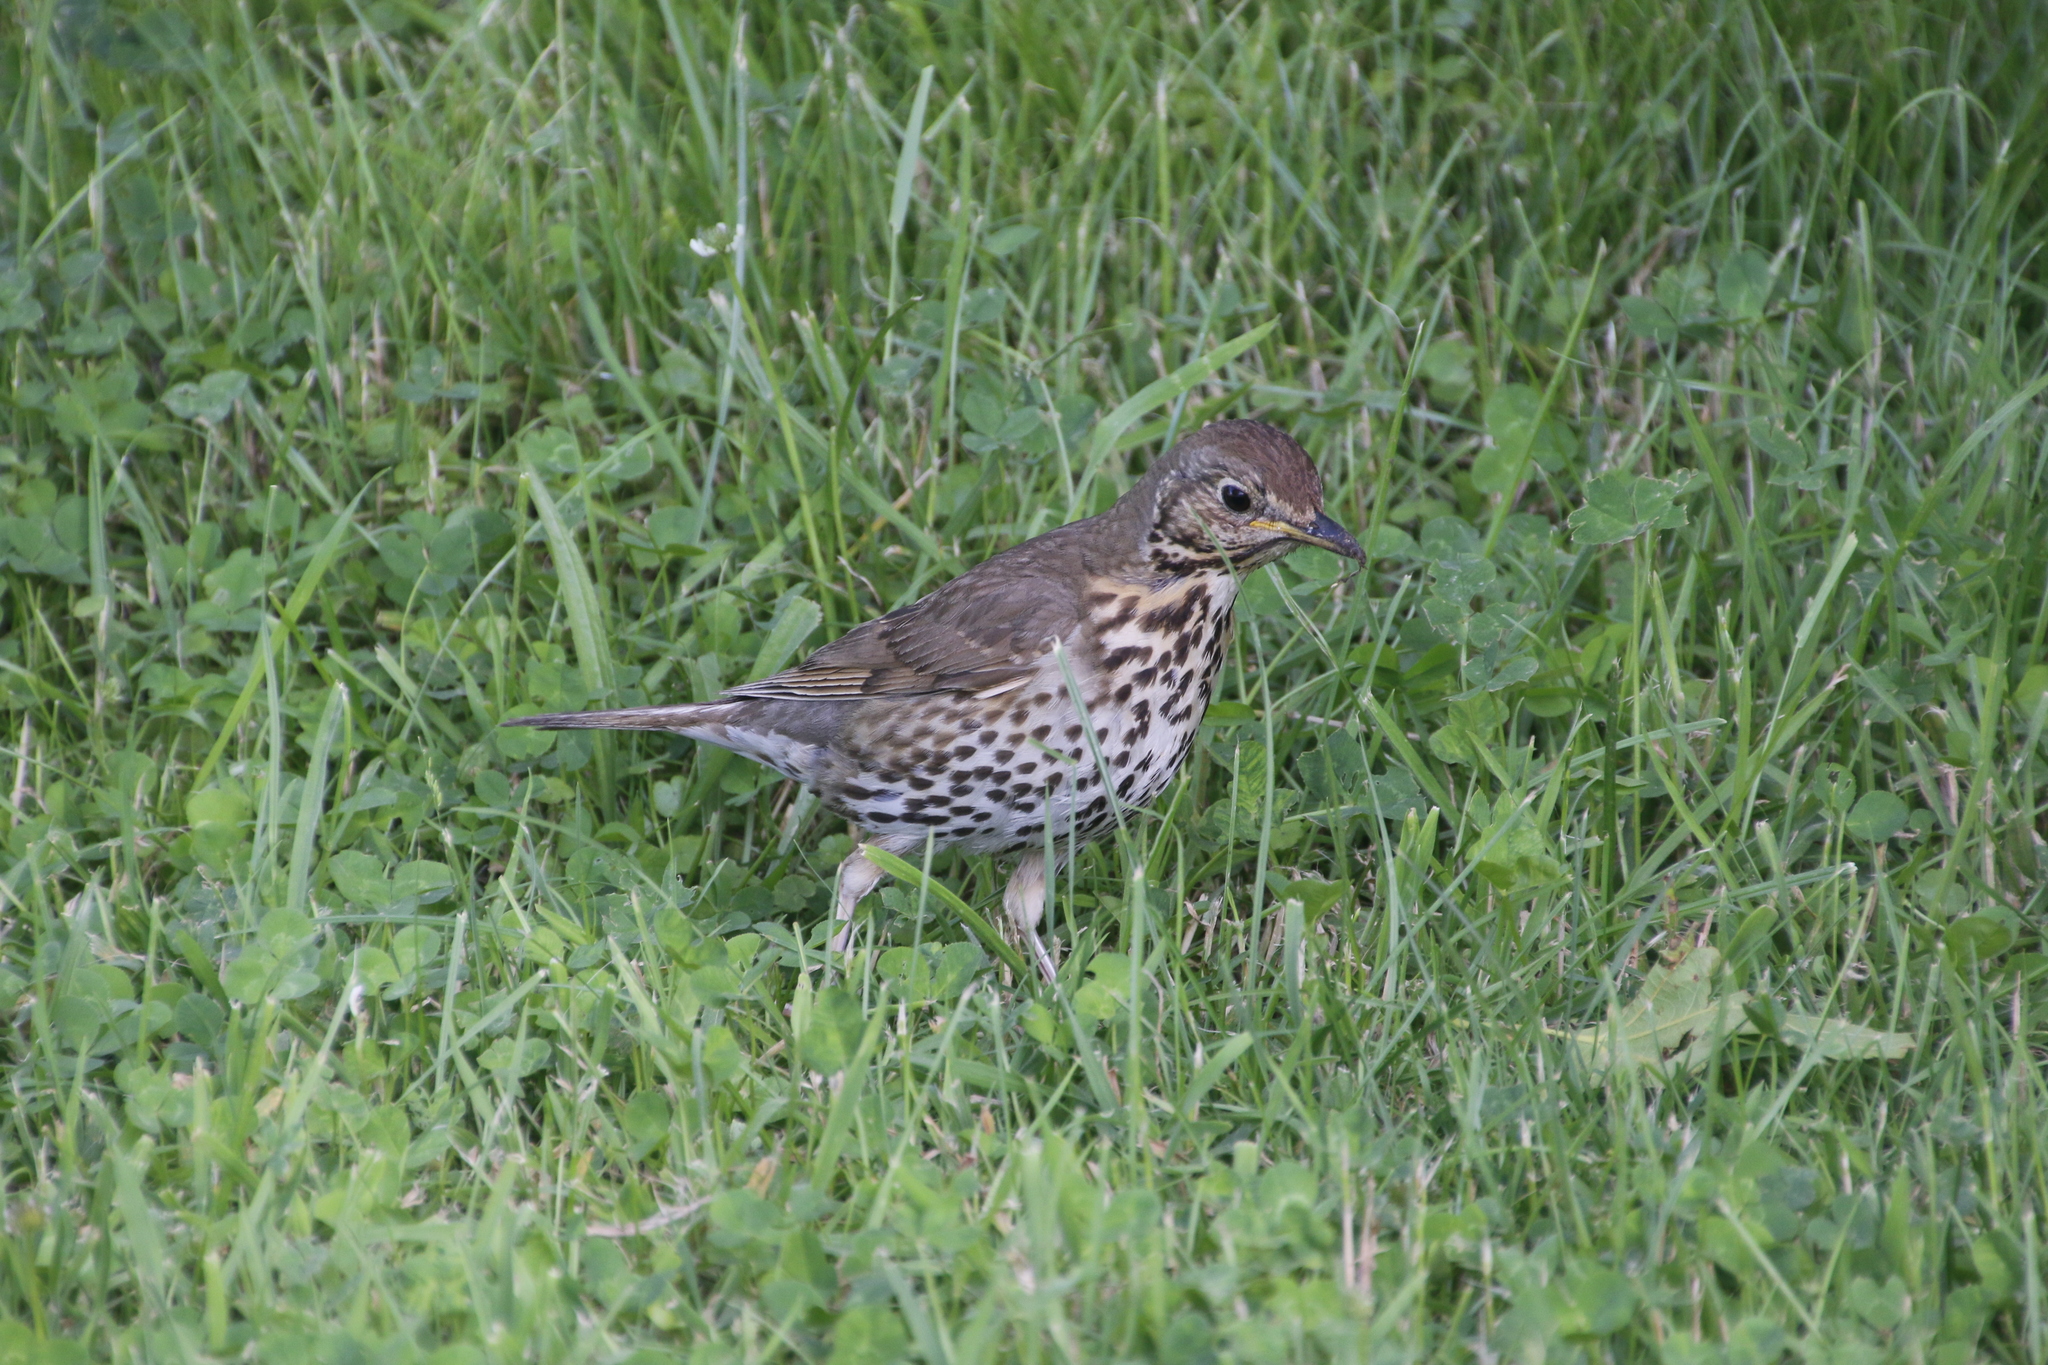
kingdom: Animalia
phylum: Chordata
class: Aves
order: Passeriformes
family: Turdidae
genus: Turdus
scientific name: Turdus philomelos
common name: Song thrush
